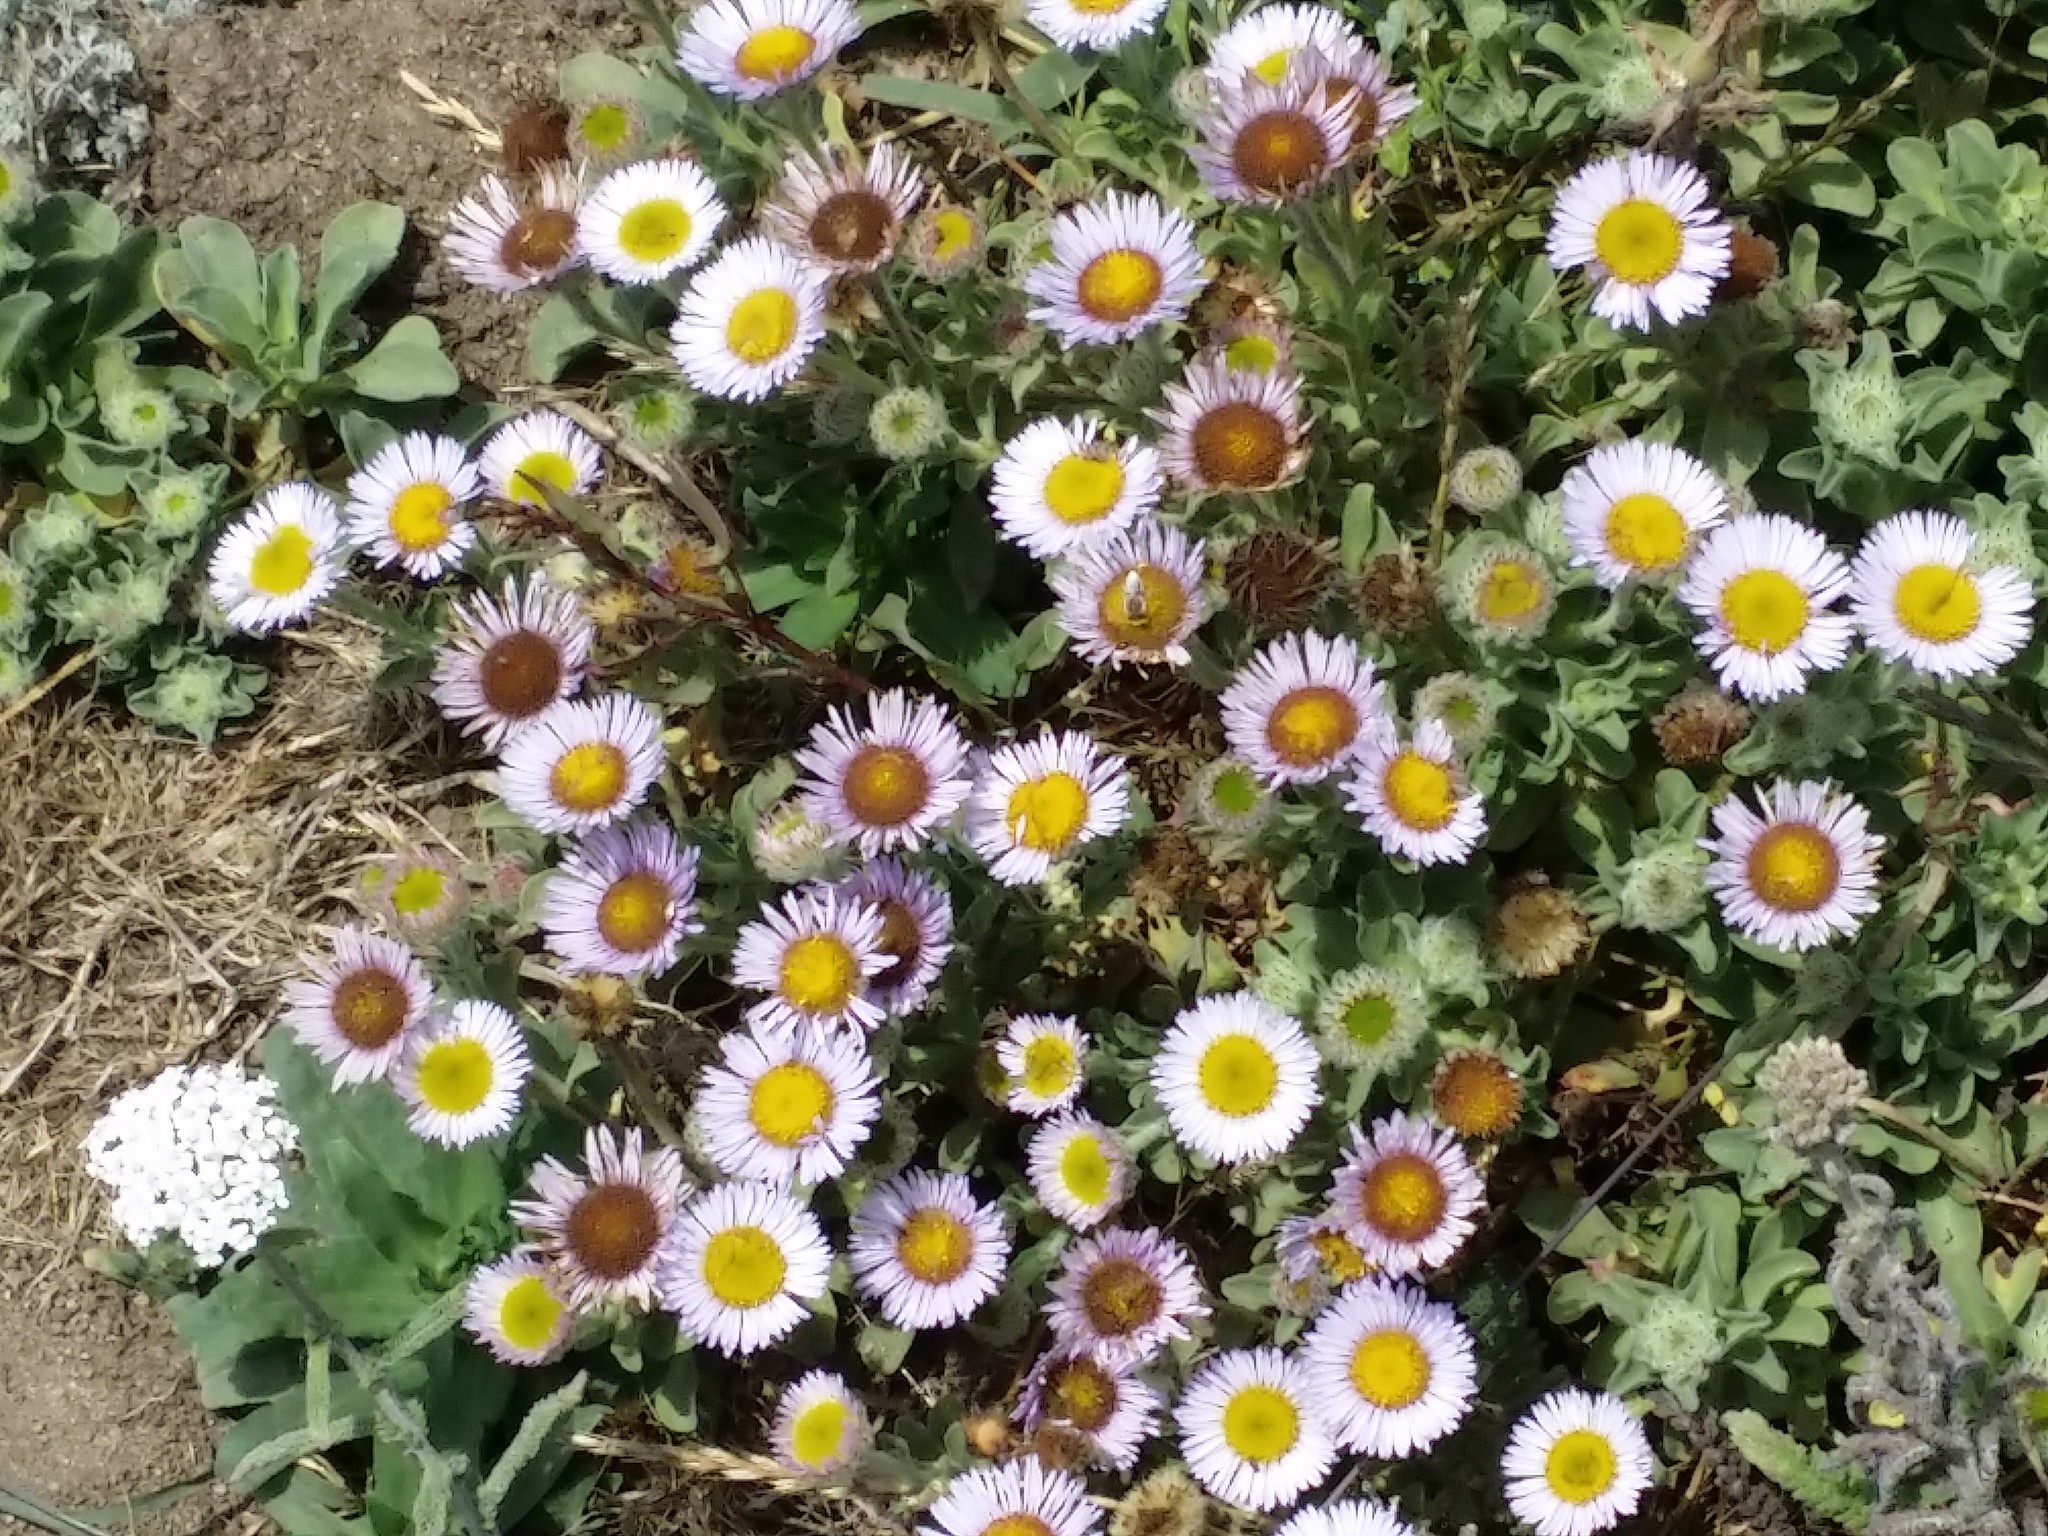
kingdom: Plantae
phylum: Tracheophyta
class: Magnoliopsida
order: Asterales
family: Asteraceae
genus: Erigeron
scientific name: Erigeron glaucus
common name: Seaside daisy
